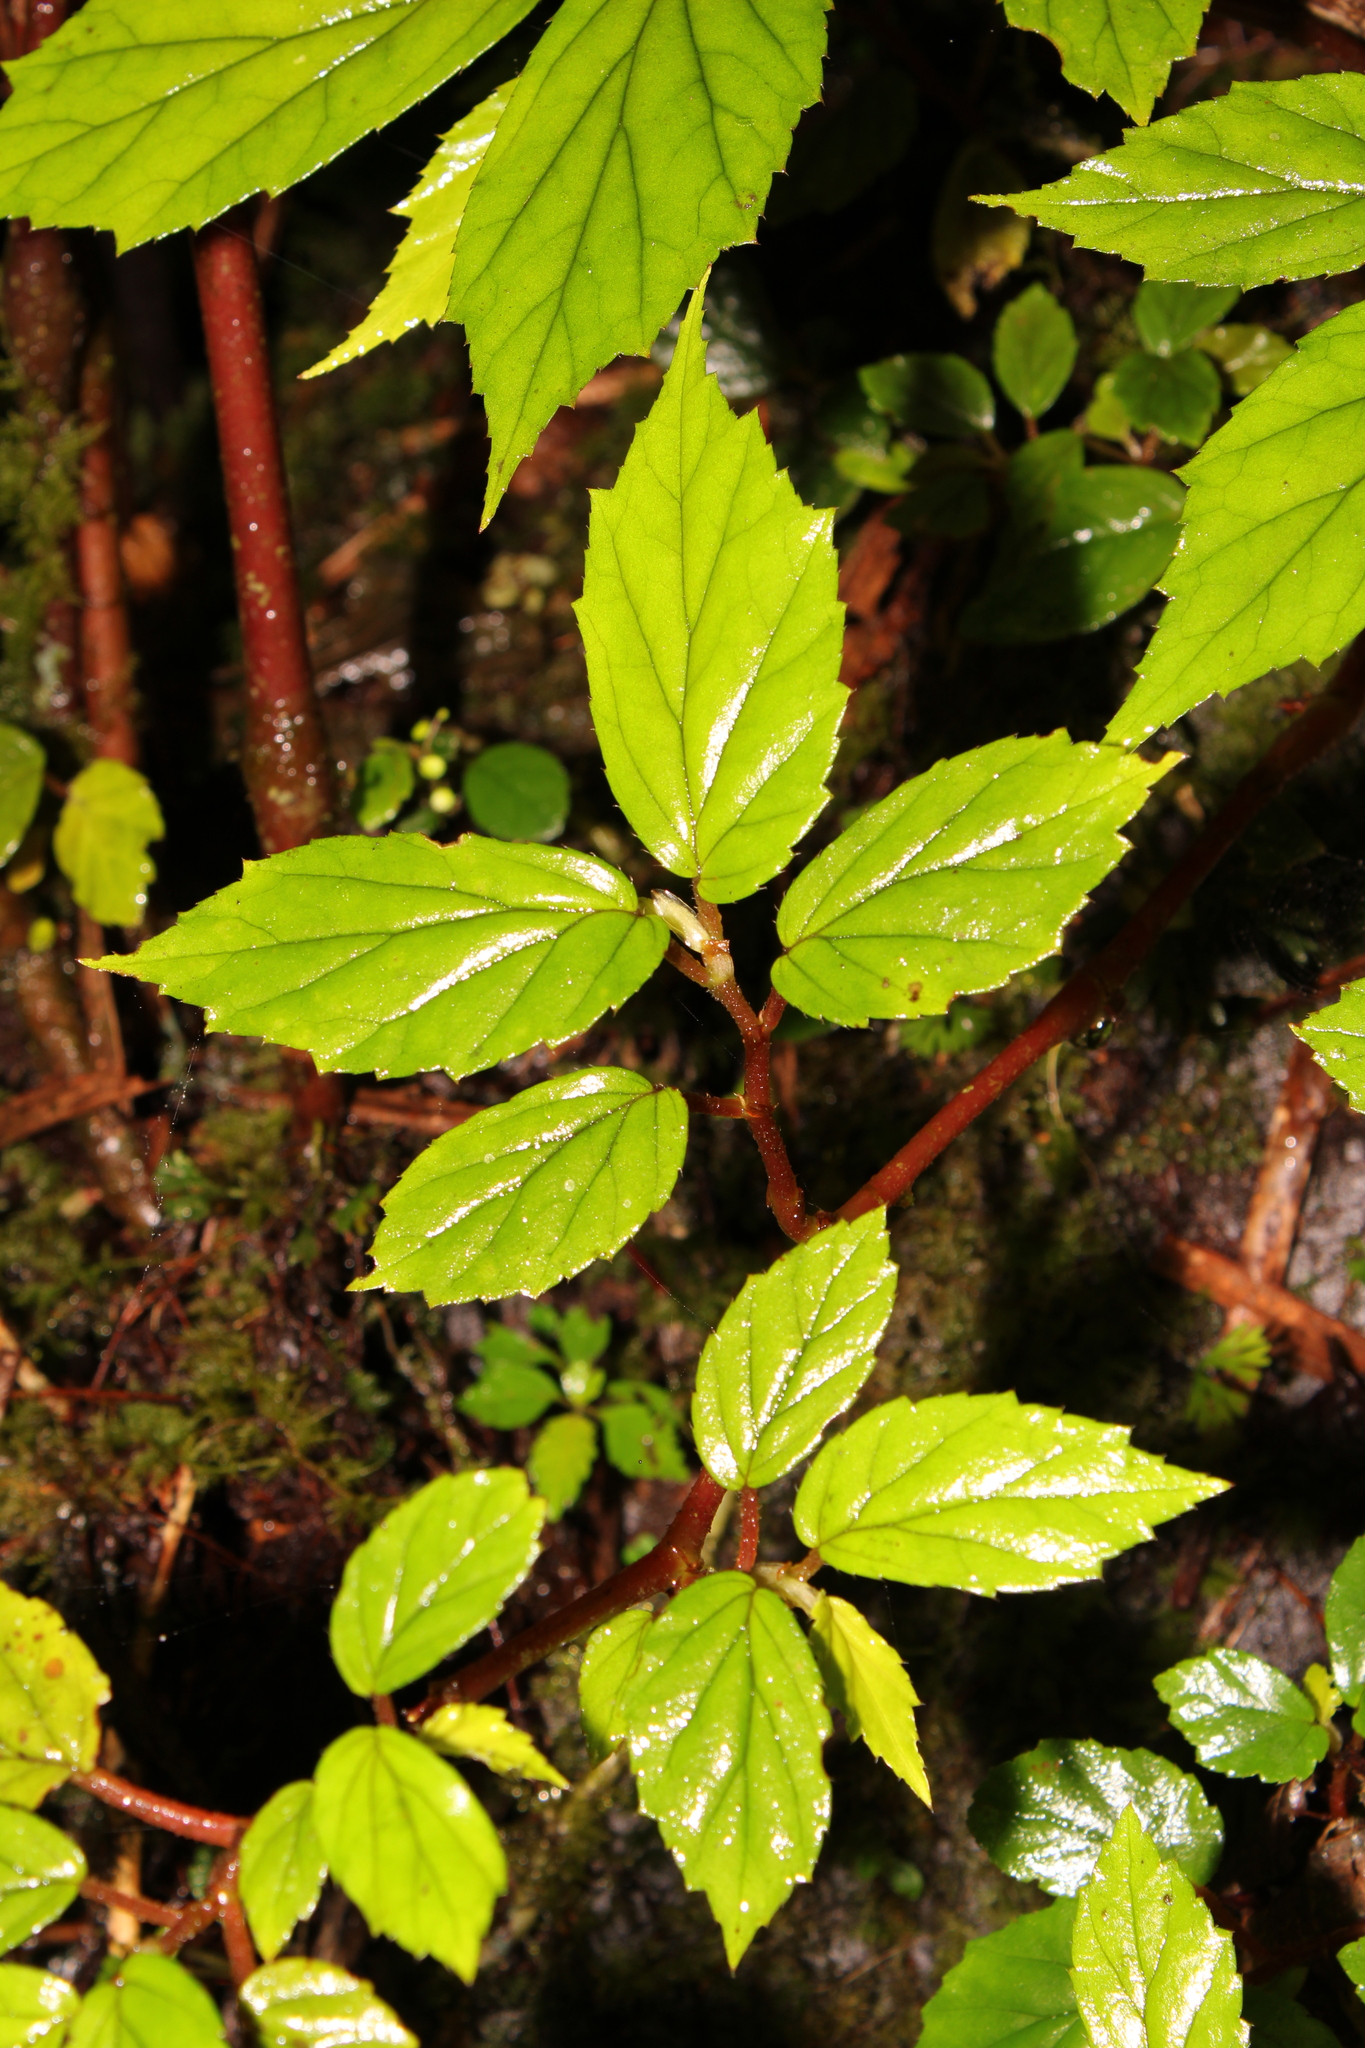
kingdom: Plantae
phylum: Tracheophyta
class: Magnoliopsida
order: Cucurbitales
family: Begoniaceae
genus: Begonia
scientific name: Begonia decandra
